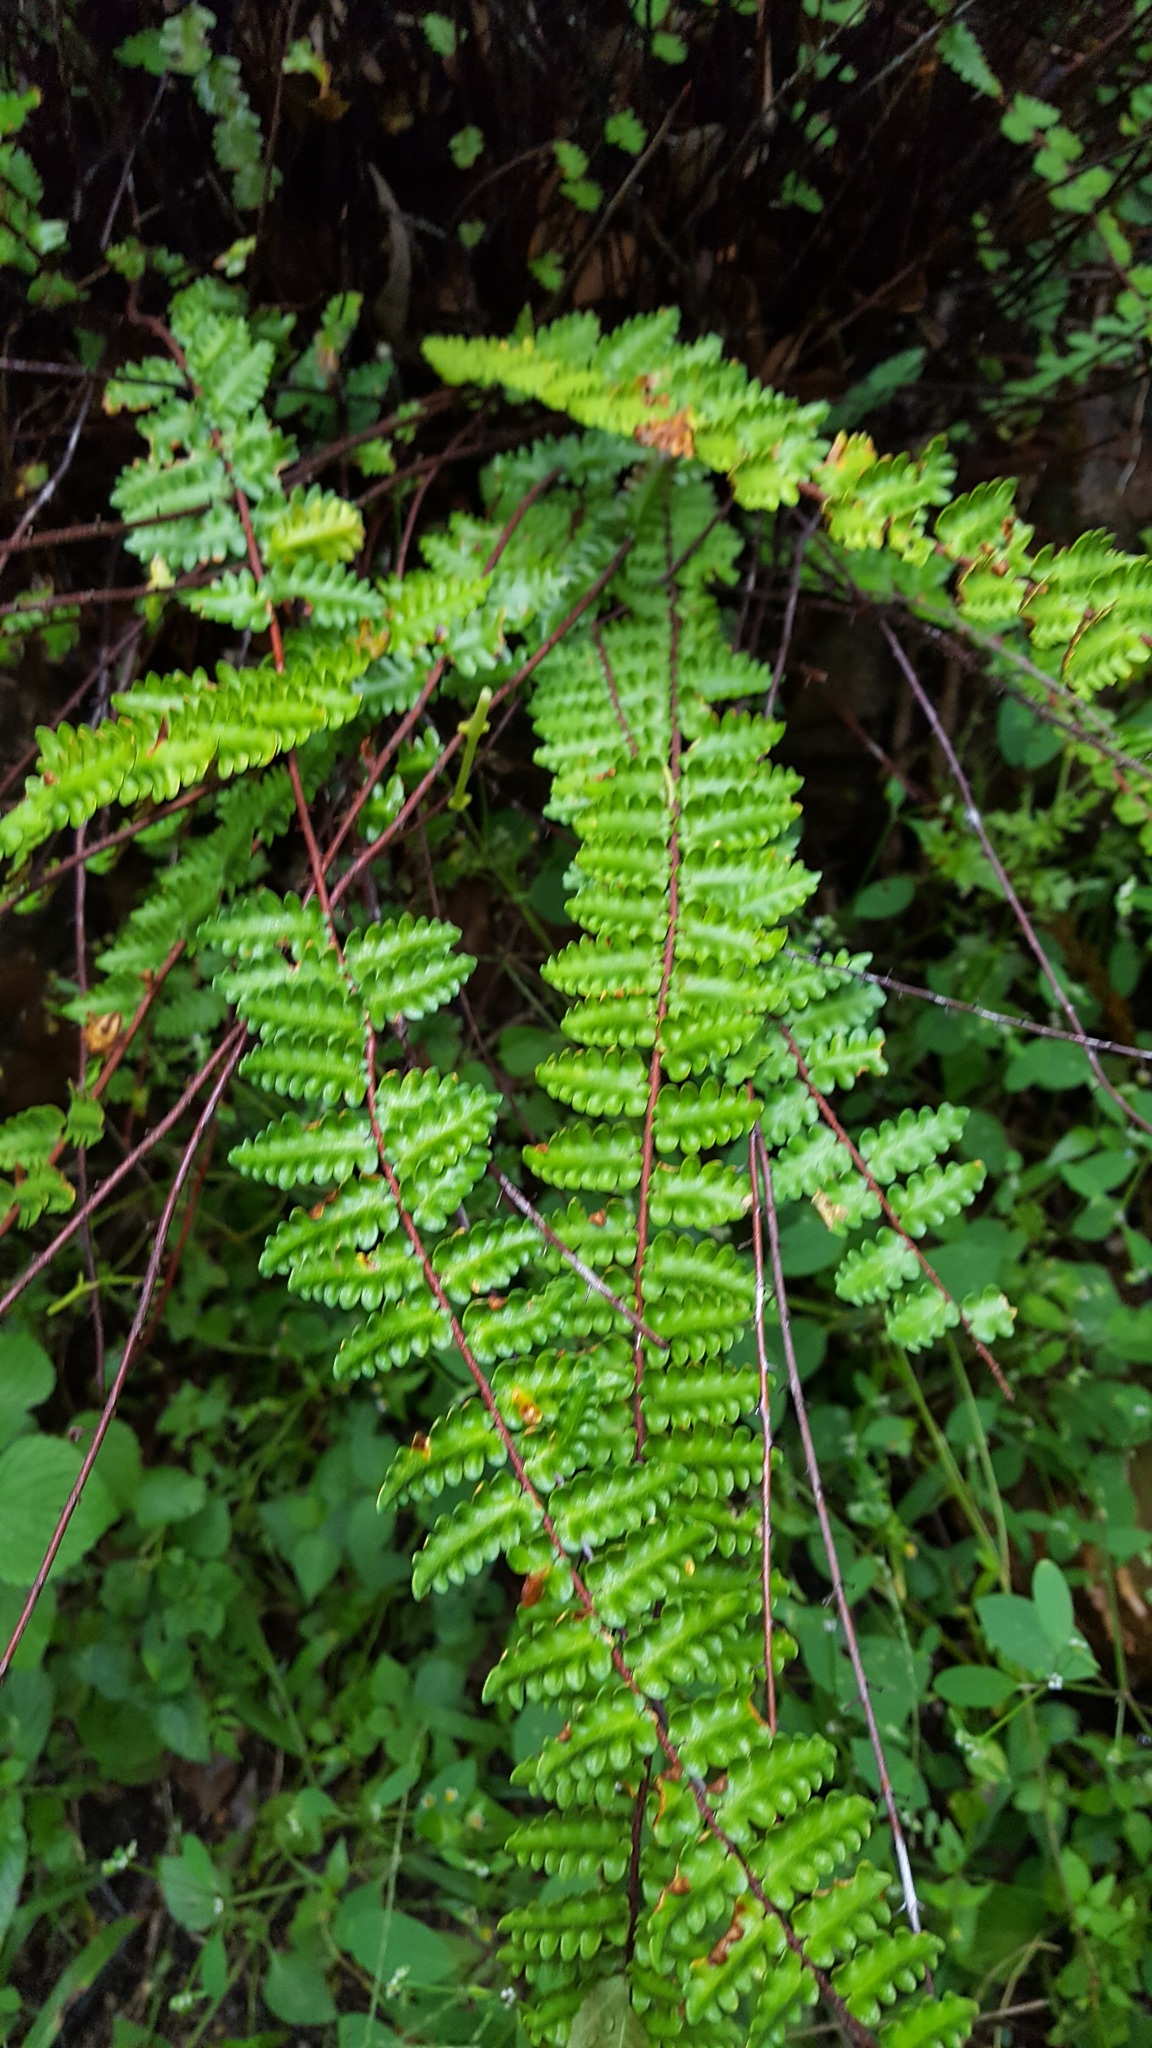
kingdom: Plantae
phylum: Tracheophyta
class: Polypodiopsida
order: Polypodiales
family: Pteridaceae
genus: Myriopteris
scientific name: Myriopteris aurea
